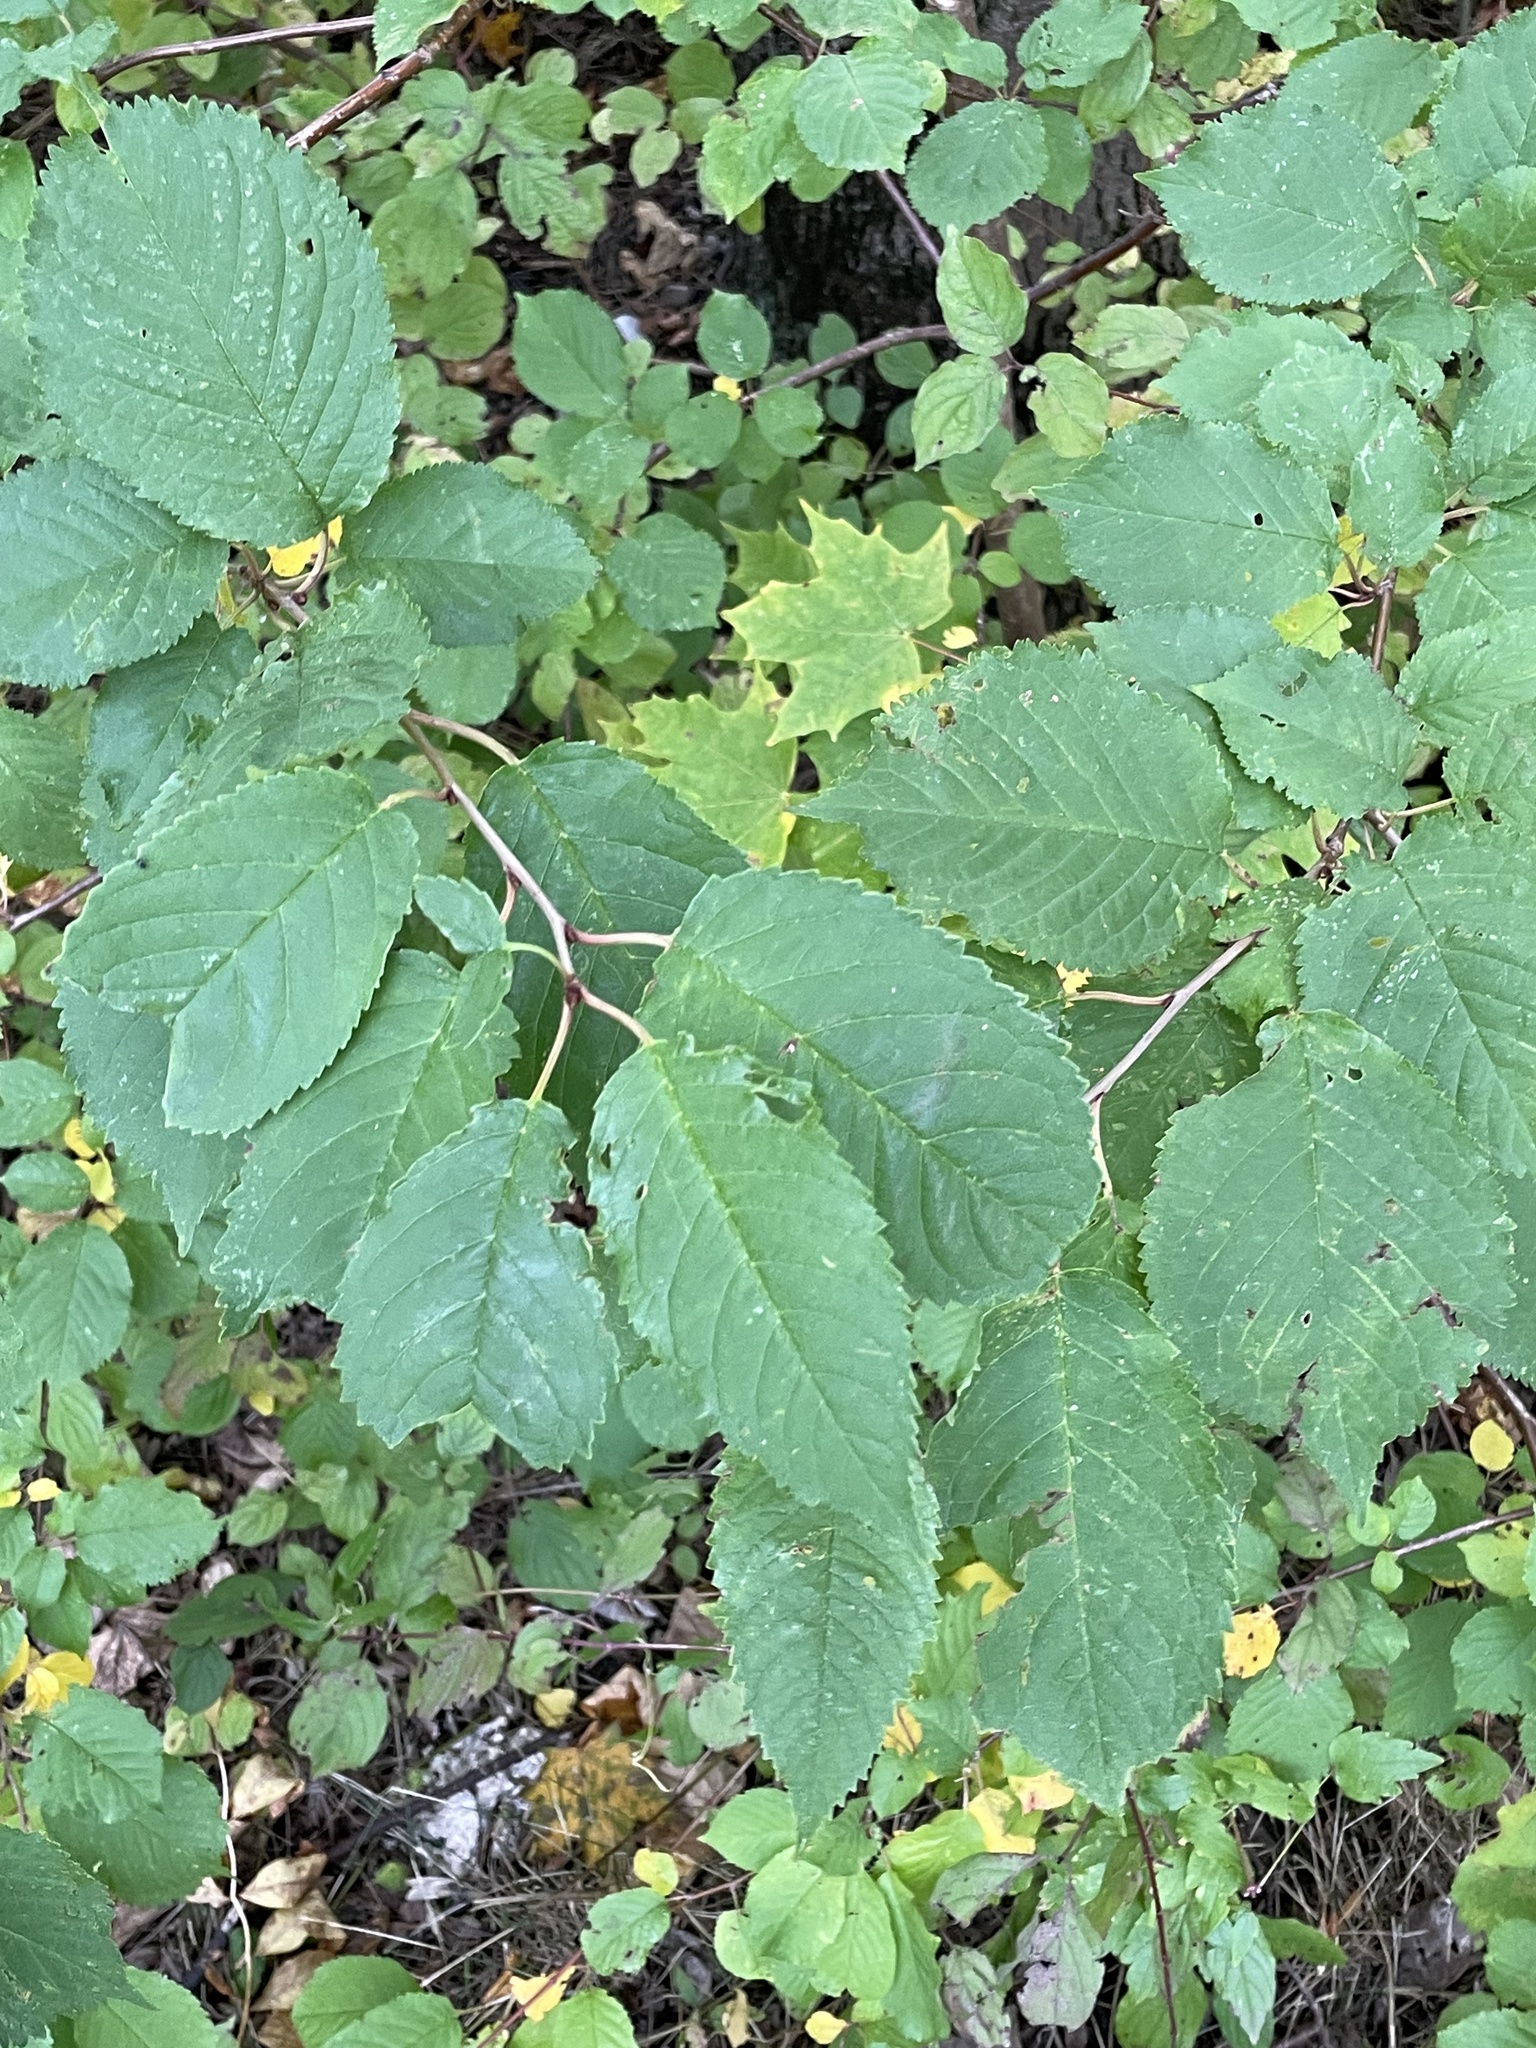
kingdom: Plantae
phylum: Tracheophyta
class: Magnoliopsida
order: Rosales
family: Rosaceae
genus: Prunus
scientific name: Prunus avium
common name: Sweet cherry
